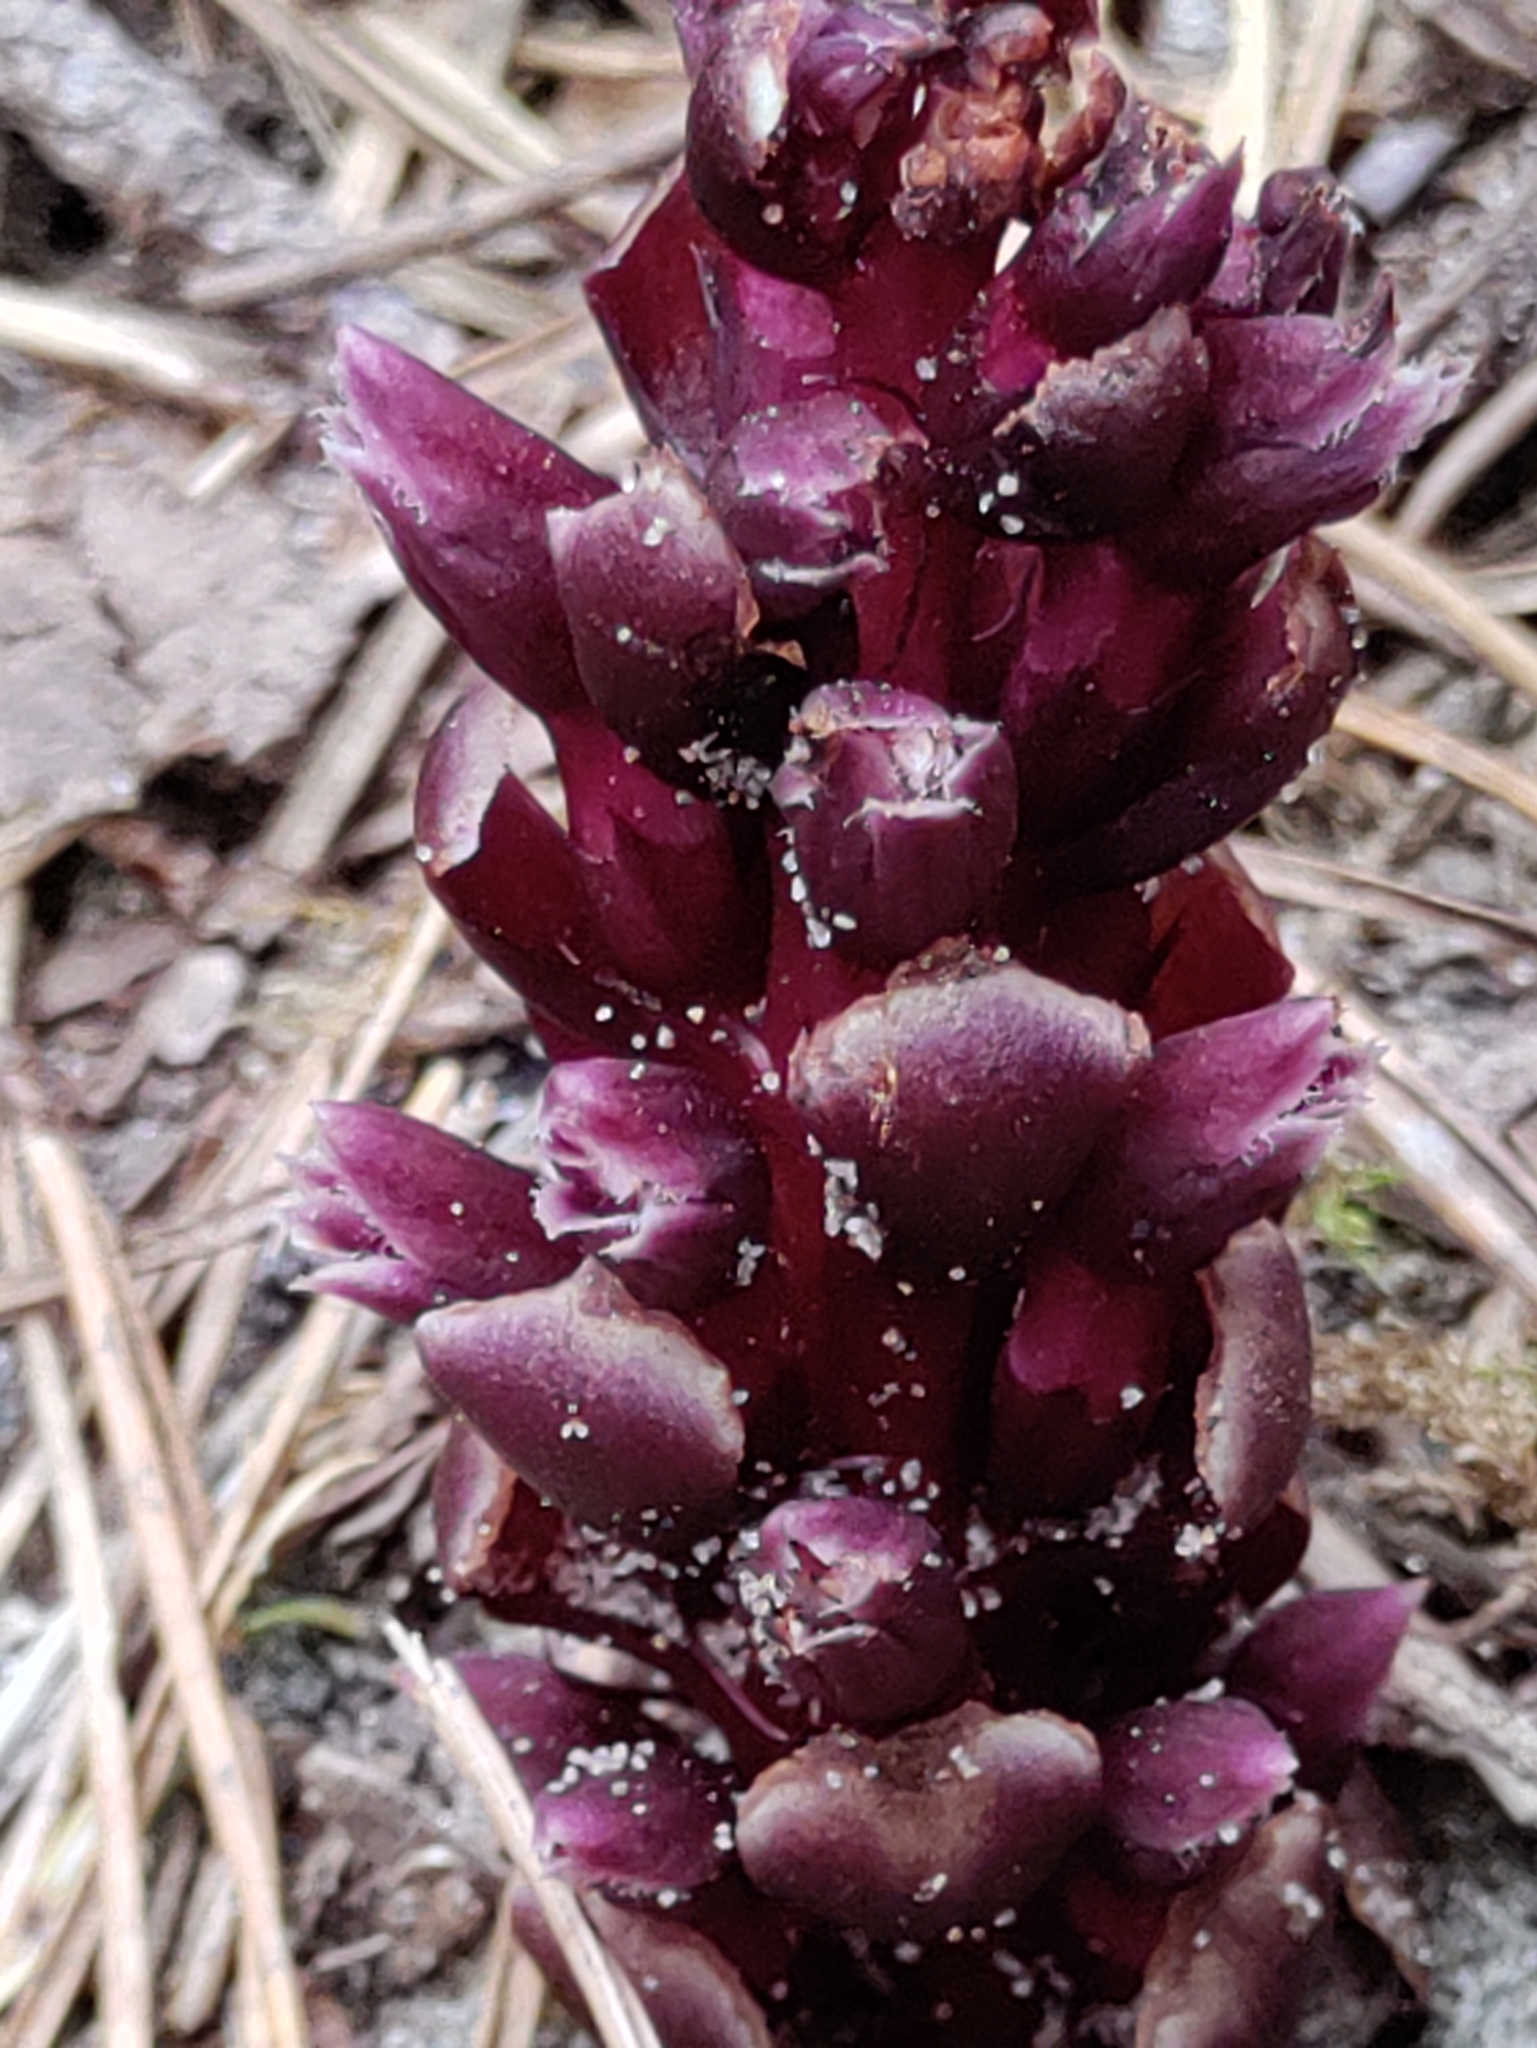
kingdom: Plantae
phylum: Tracheophyta
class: Magnoliopsida
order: Lamiales
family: Orobanchaceae
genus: Kopsiopsis
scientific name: Kopsiopsis hookeri
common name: Hooker's groundcone
